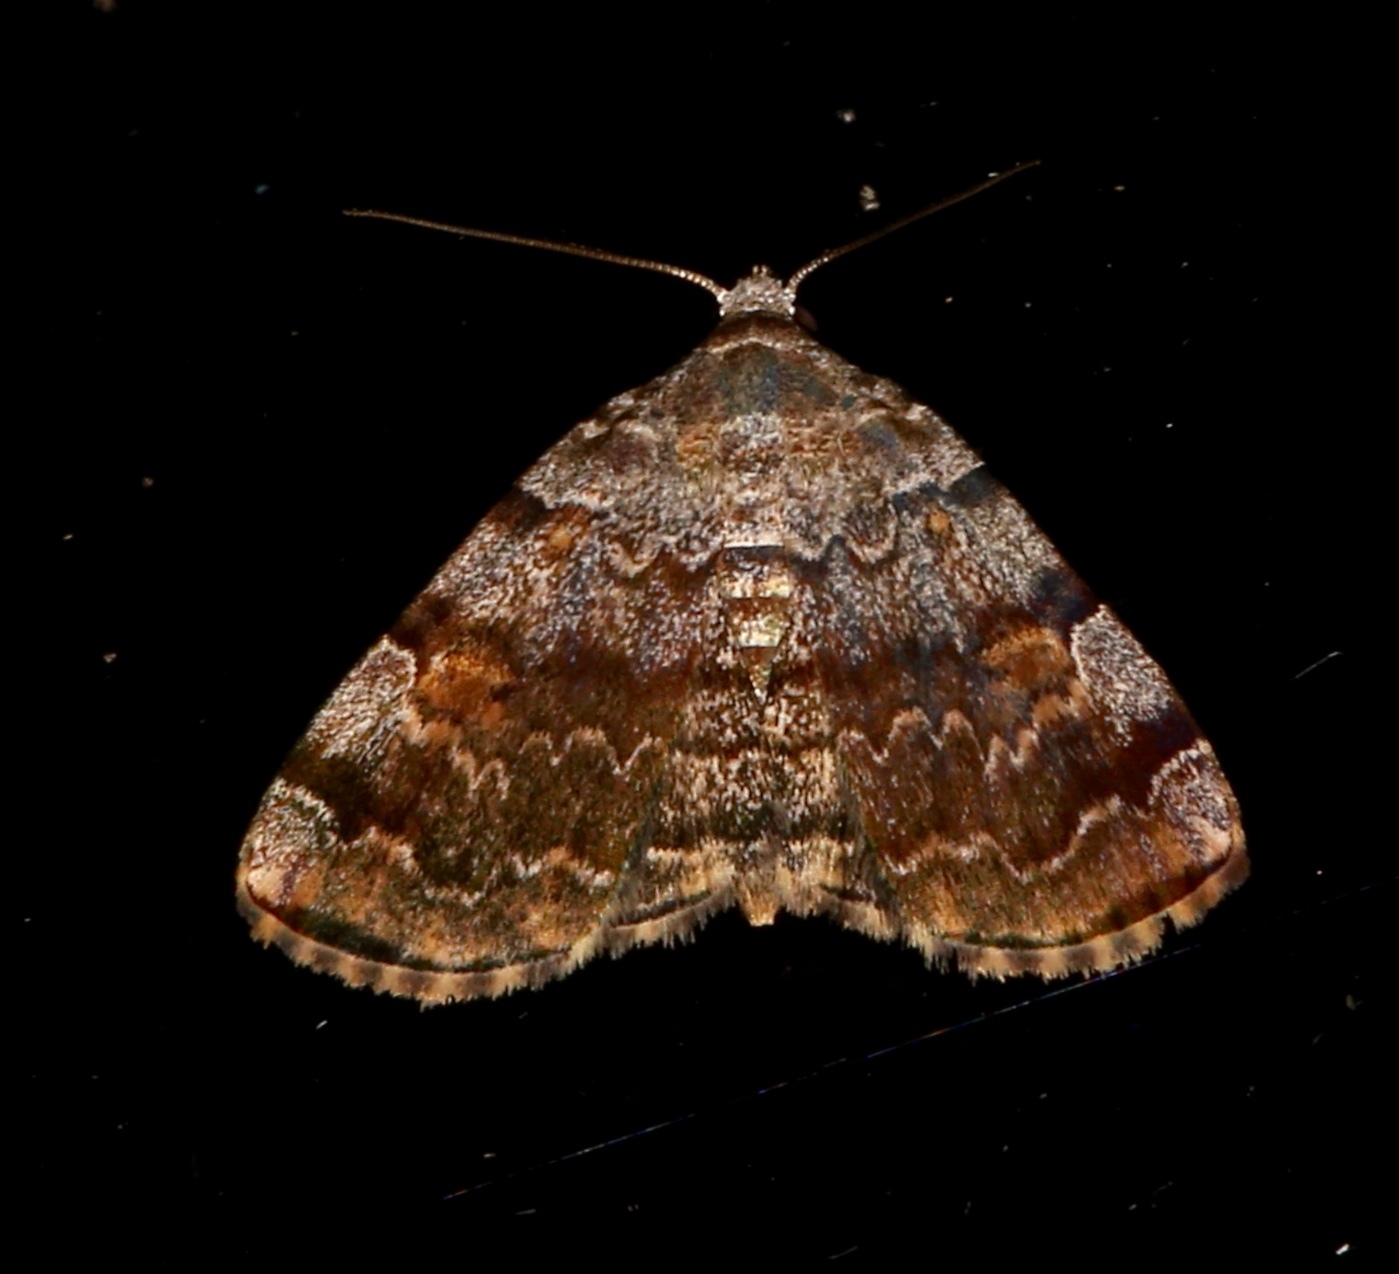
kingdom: Animalia
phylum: Arthropoda
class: Insecta
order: Lepidoptera
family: Erebidae
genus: Idia
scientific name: Idia americalis
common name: American idia moth
